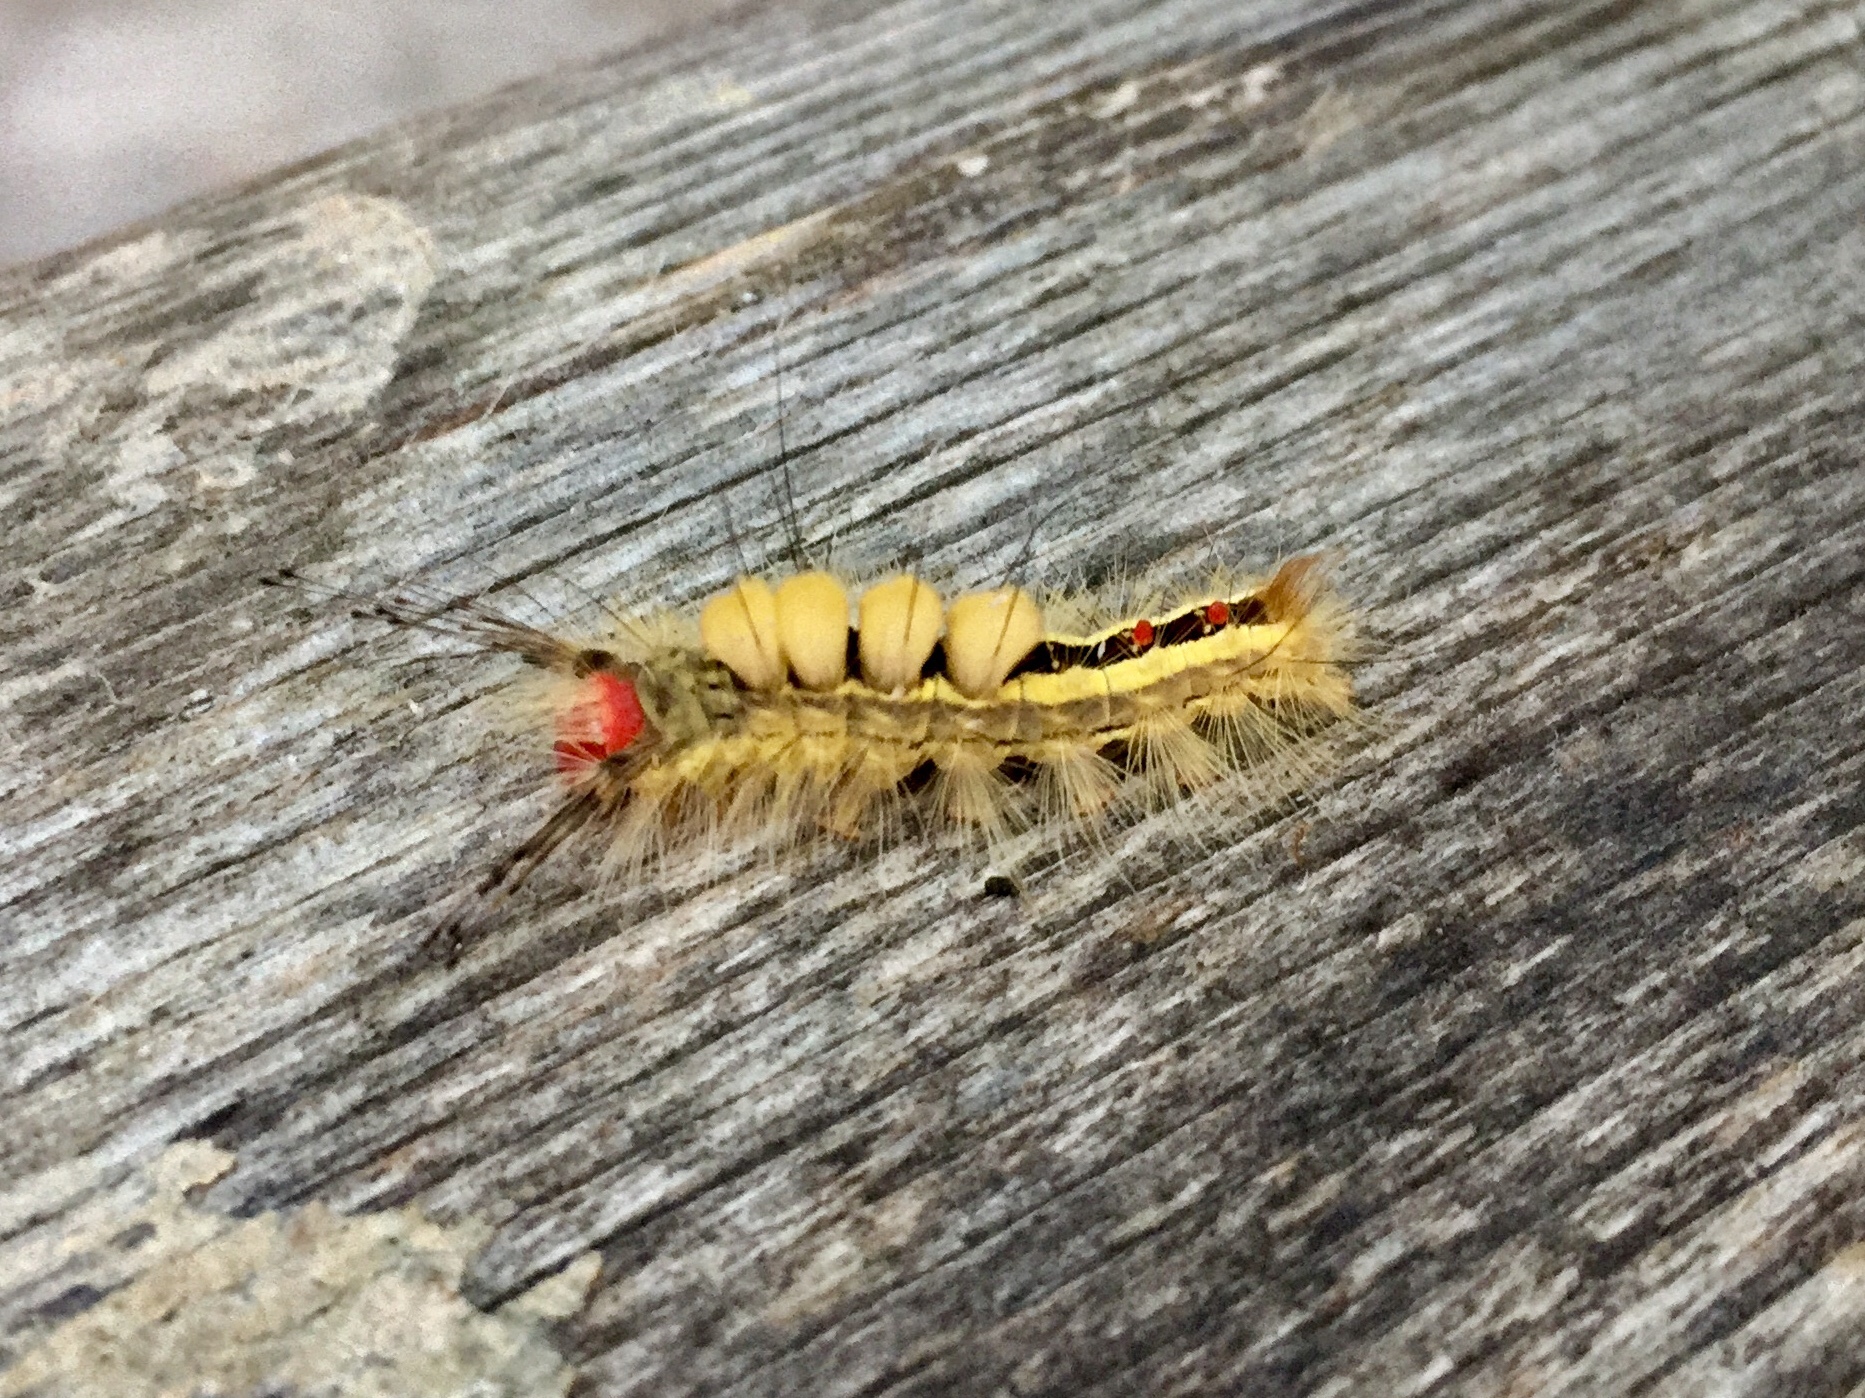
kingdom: Animalia
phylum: Arthropoda
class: Insecta
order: Lepidoptera
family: Erebidae
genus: Orgyia
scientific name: Orgyia leucostigma
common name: White-marked tussock moth
